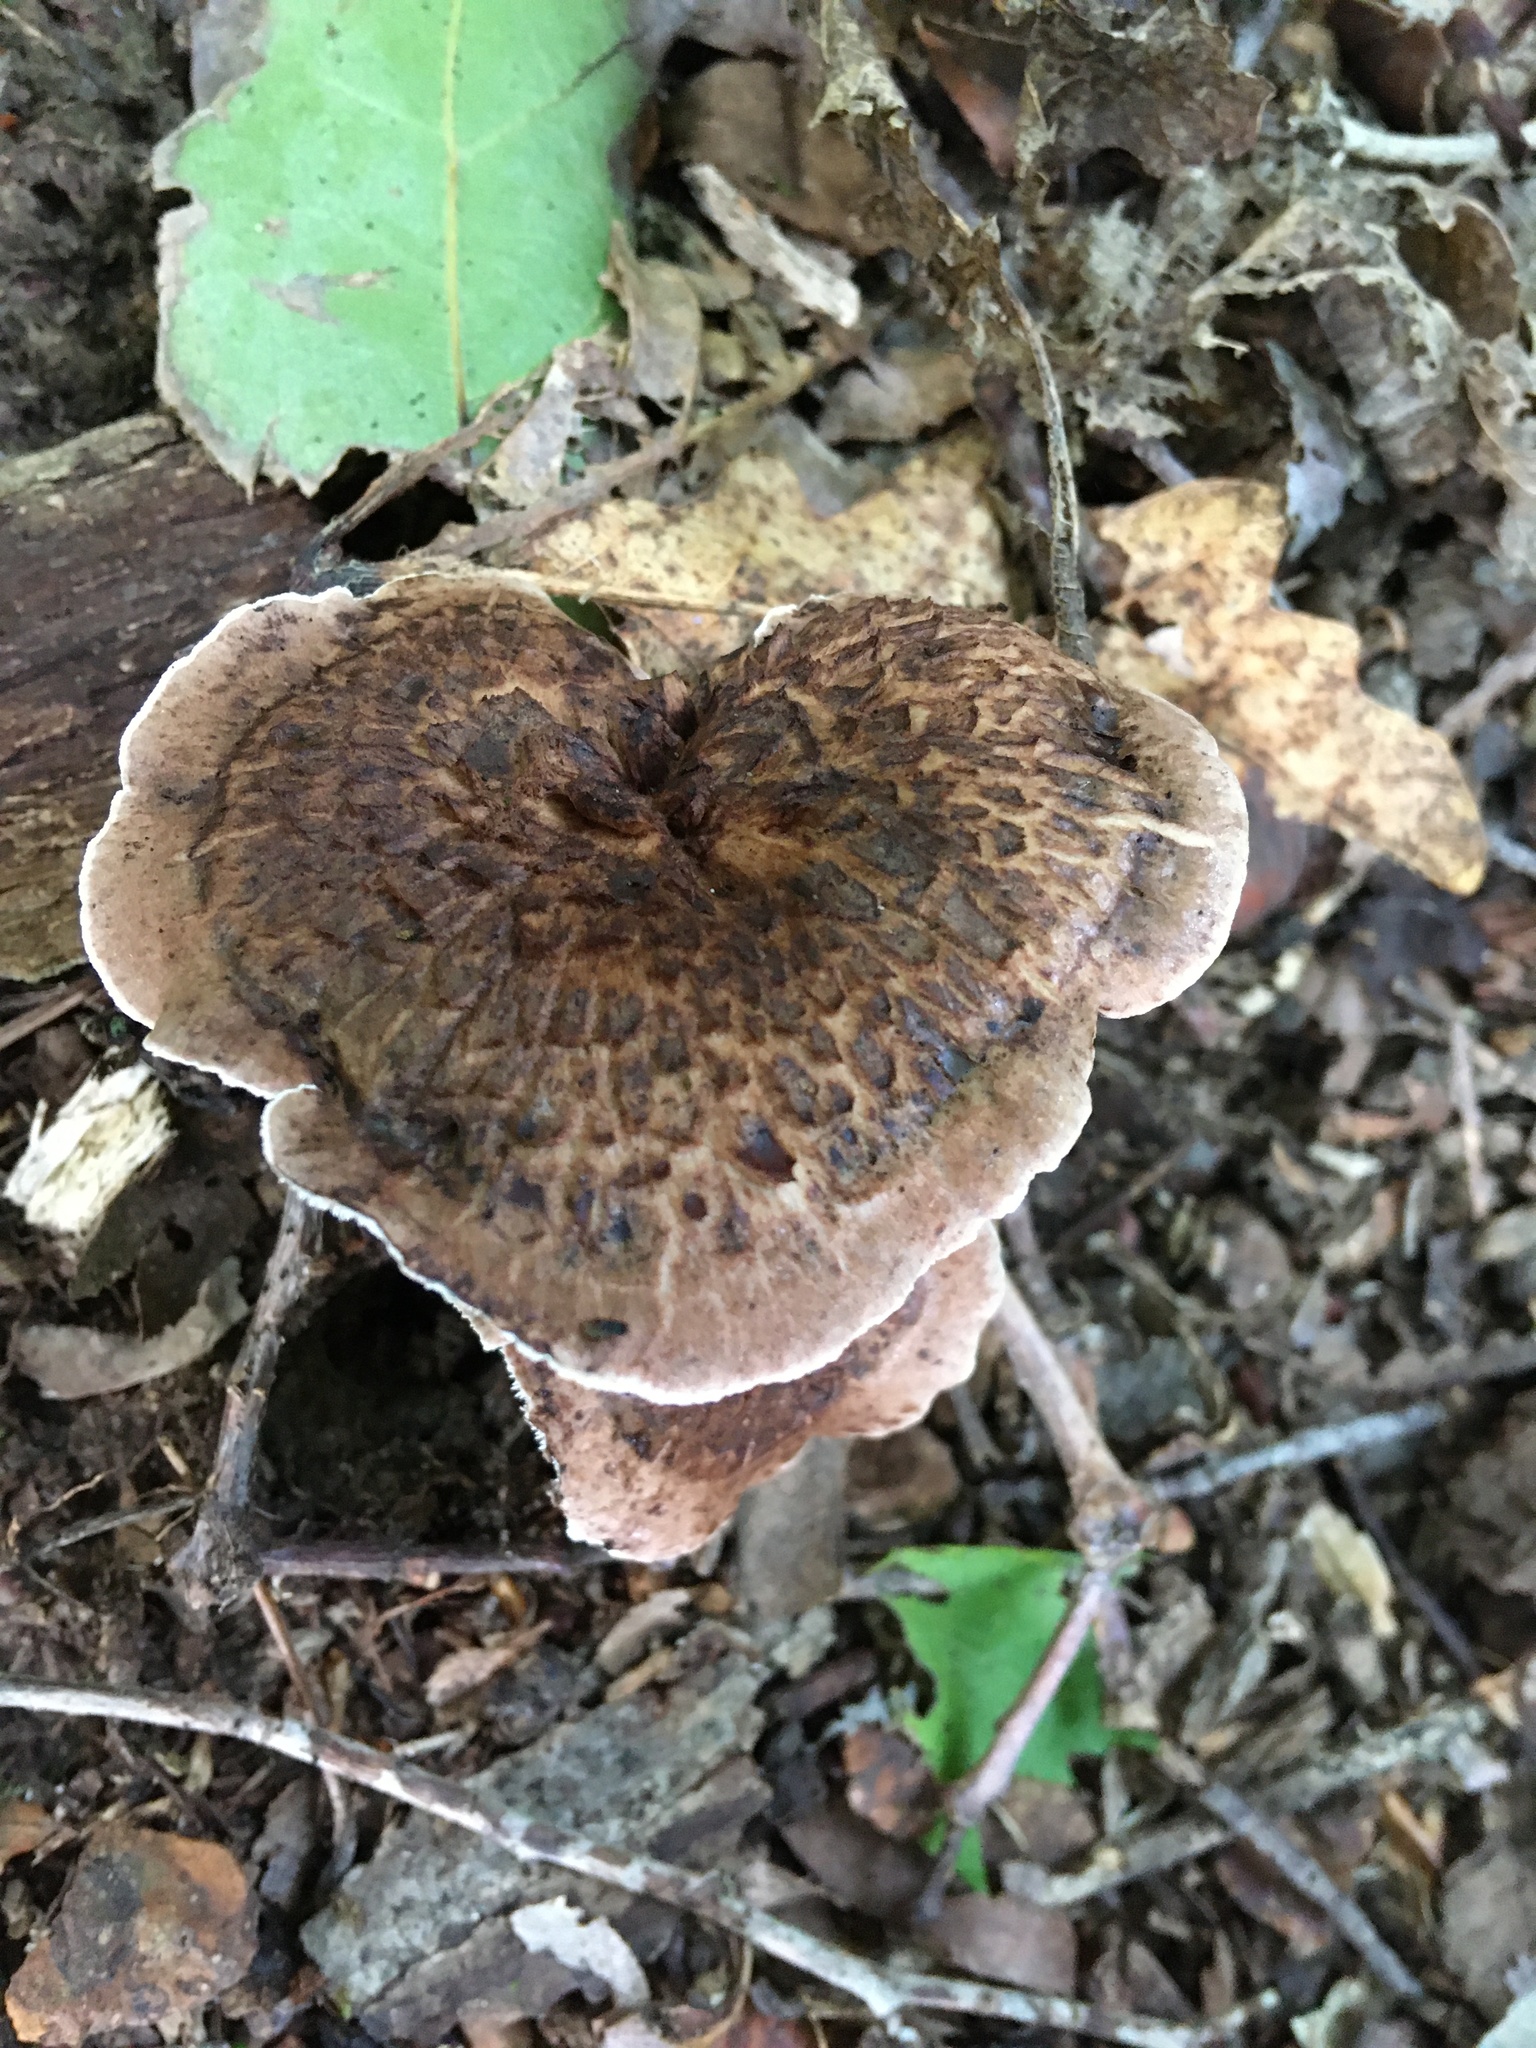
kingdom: Fungi
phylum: Basidiomycota
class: Agaricomycetes
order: Thelephorales
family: Bankeraceae
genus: Sarcodon
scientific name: Sarcodon imbricatus
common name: Shingled hedgehog
